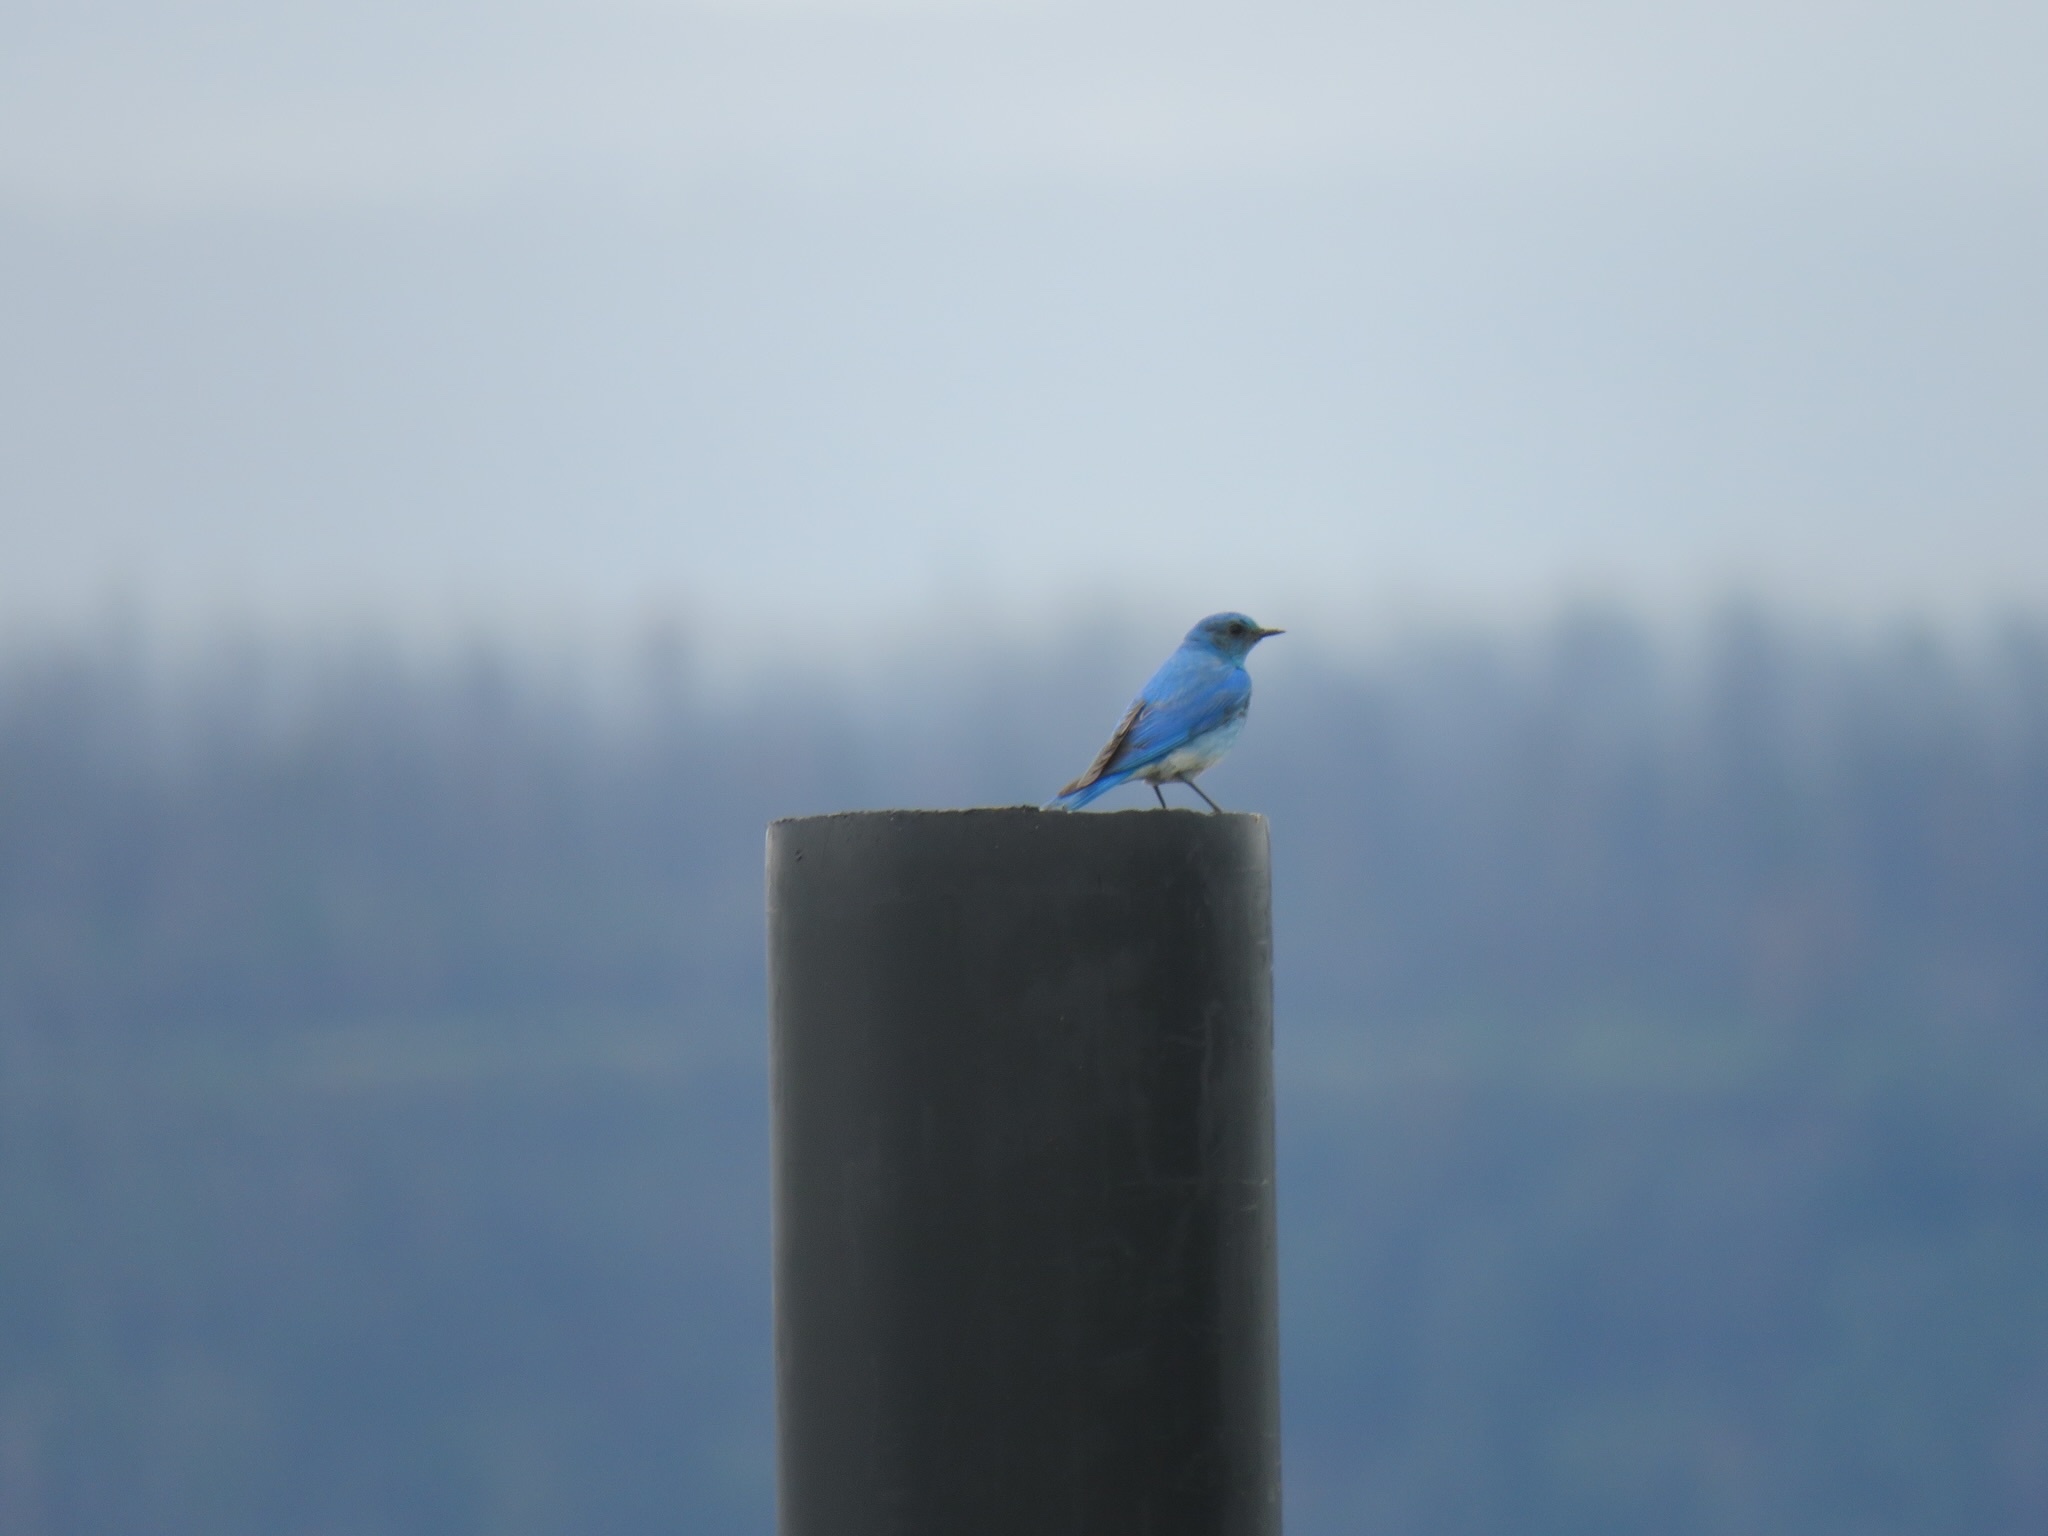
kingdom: Animalia
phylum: Chordata
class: Aves
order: Passeriformes
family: Turdidae
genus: Sialia
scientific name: Sialia currucoides
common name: Mountain bluebird
